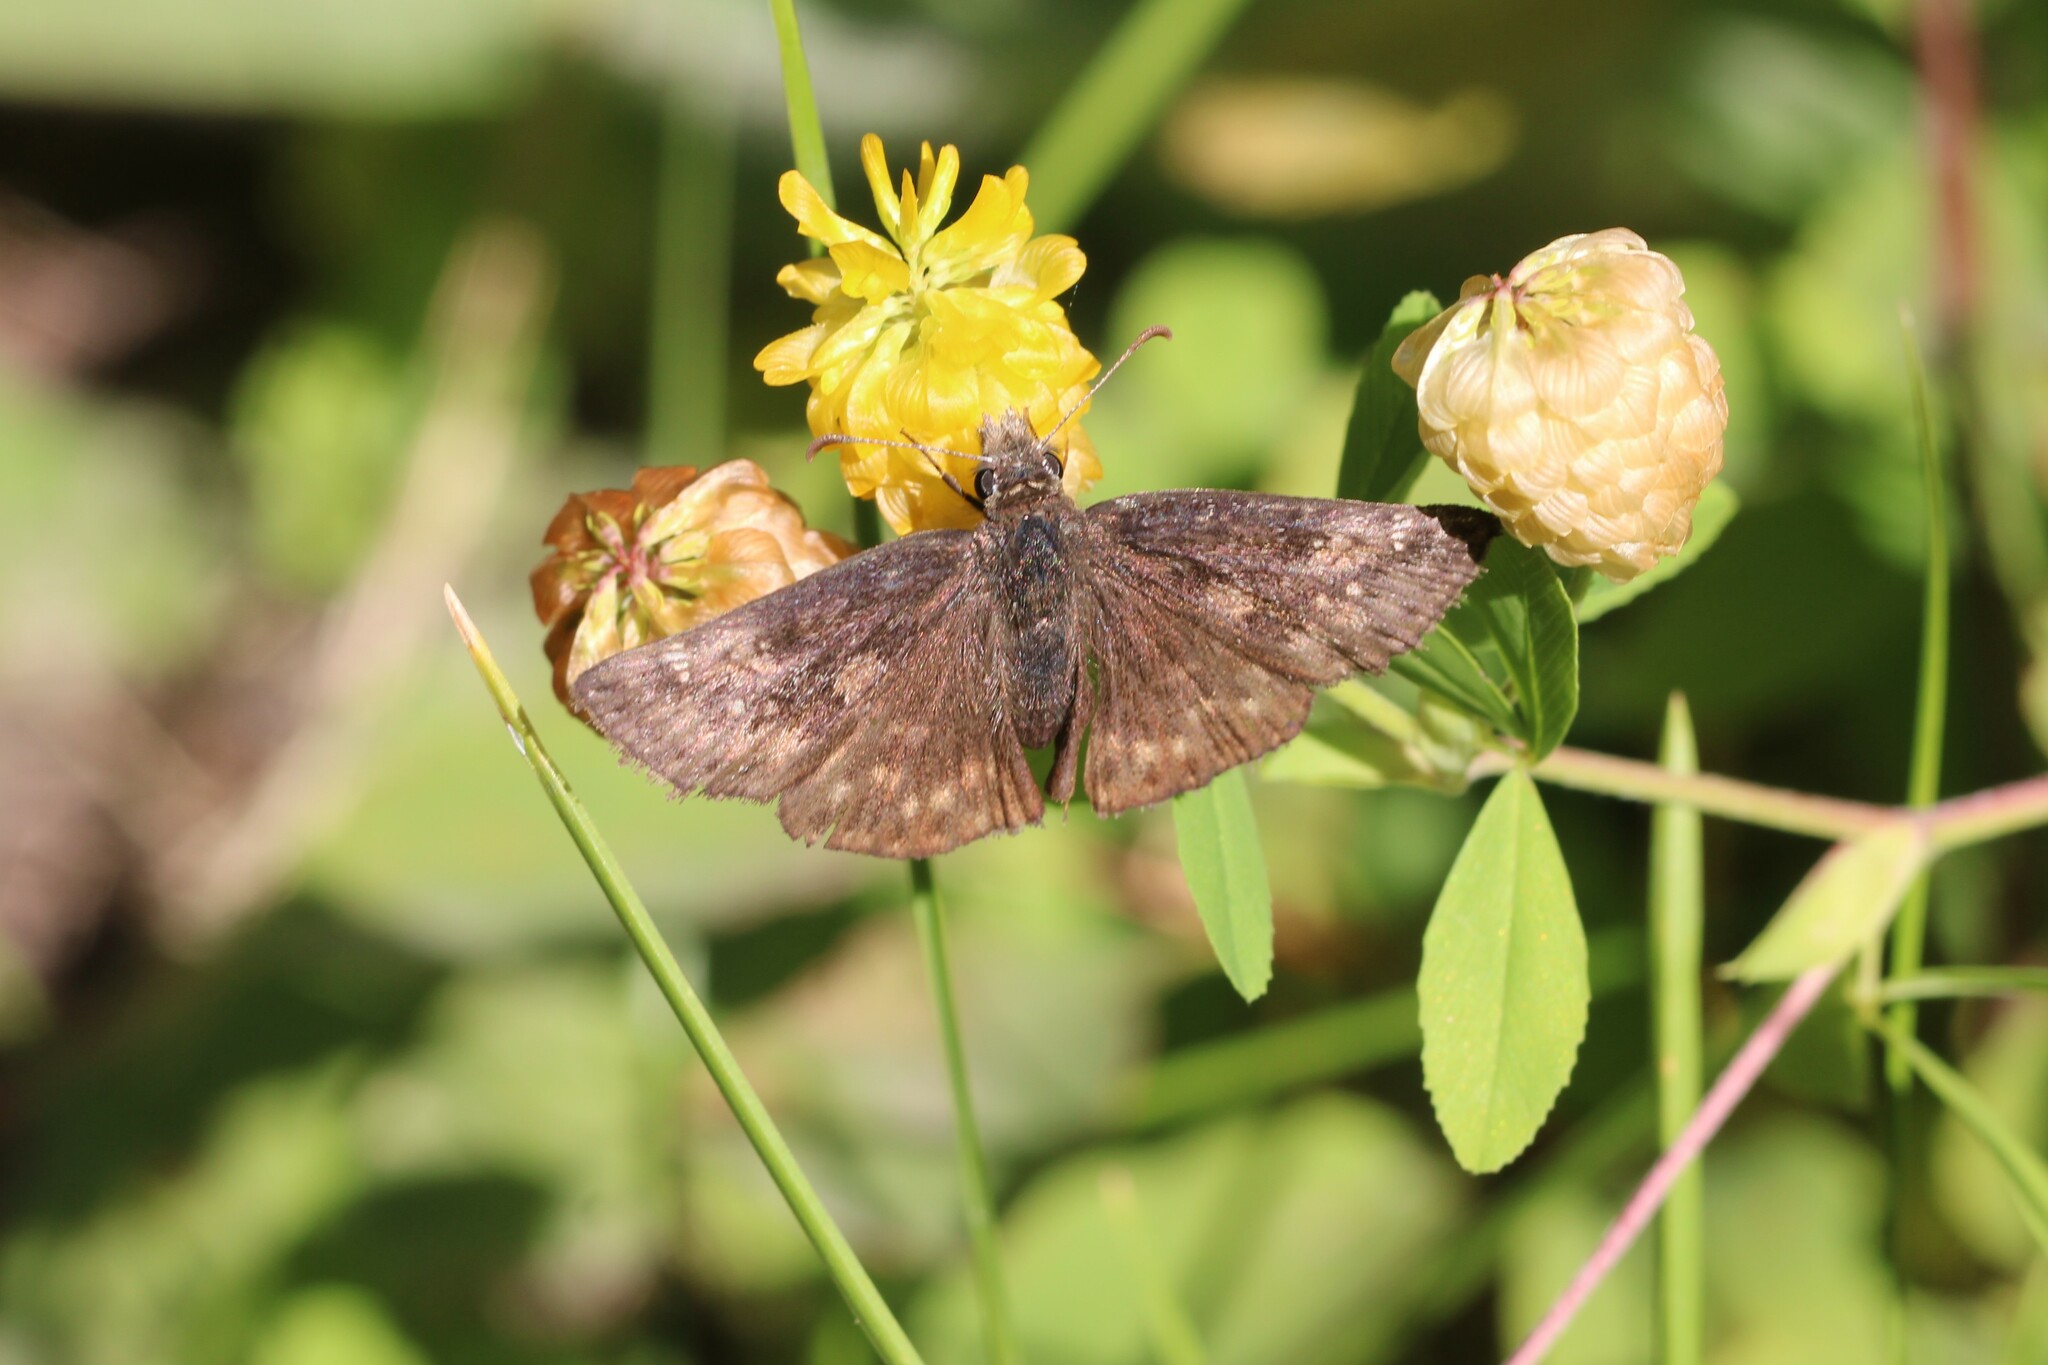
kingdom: Animalia
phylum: Arthropoda
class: Insecta
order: Lepidoptera
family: Hesperiidae
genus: Erynnis
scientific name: Erynnis persius
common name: Persius duskywing
